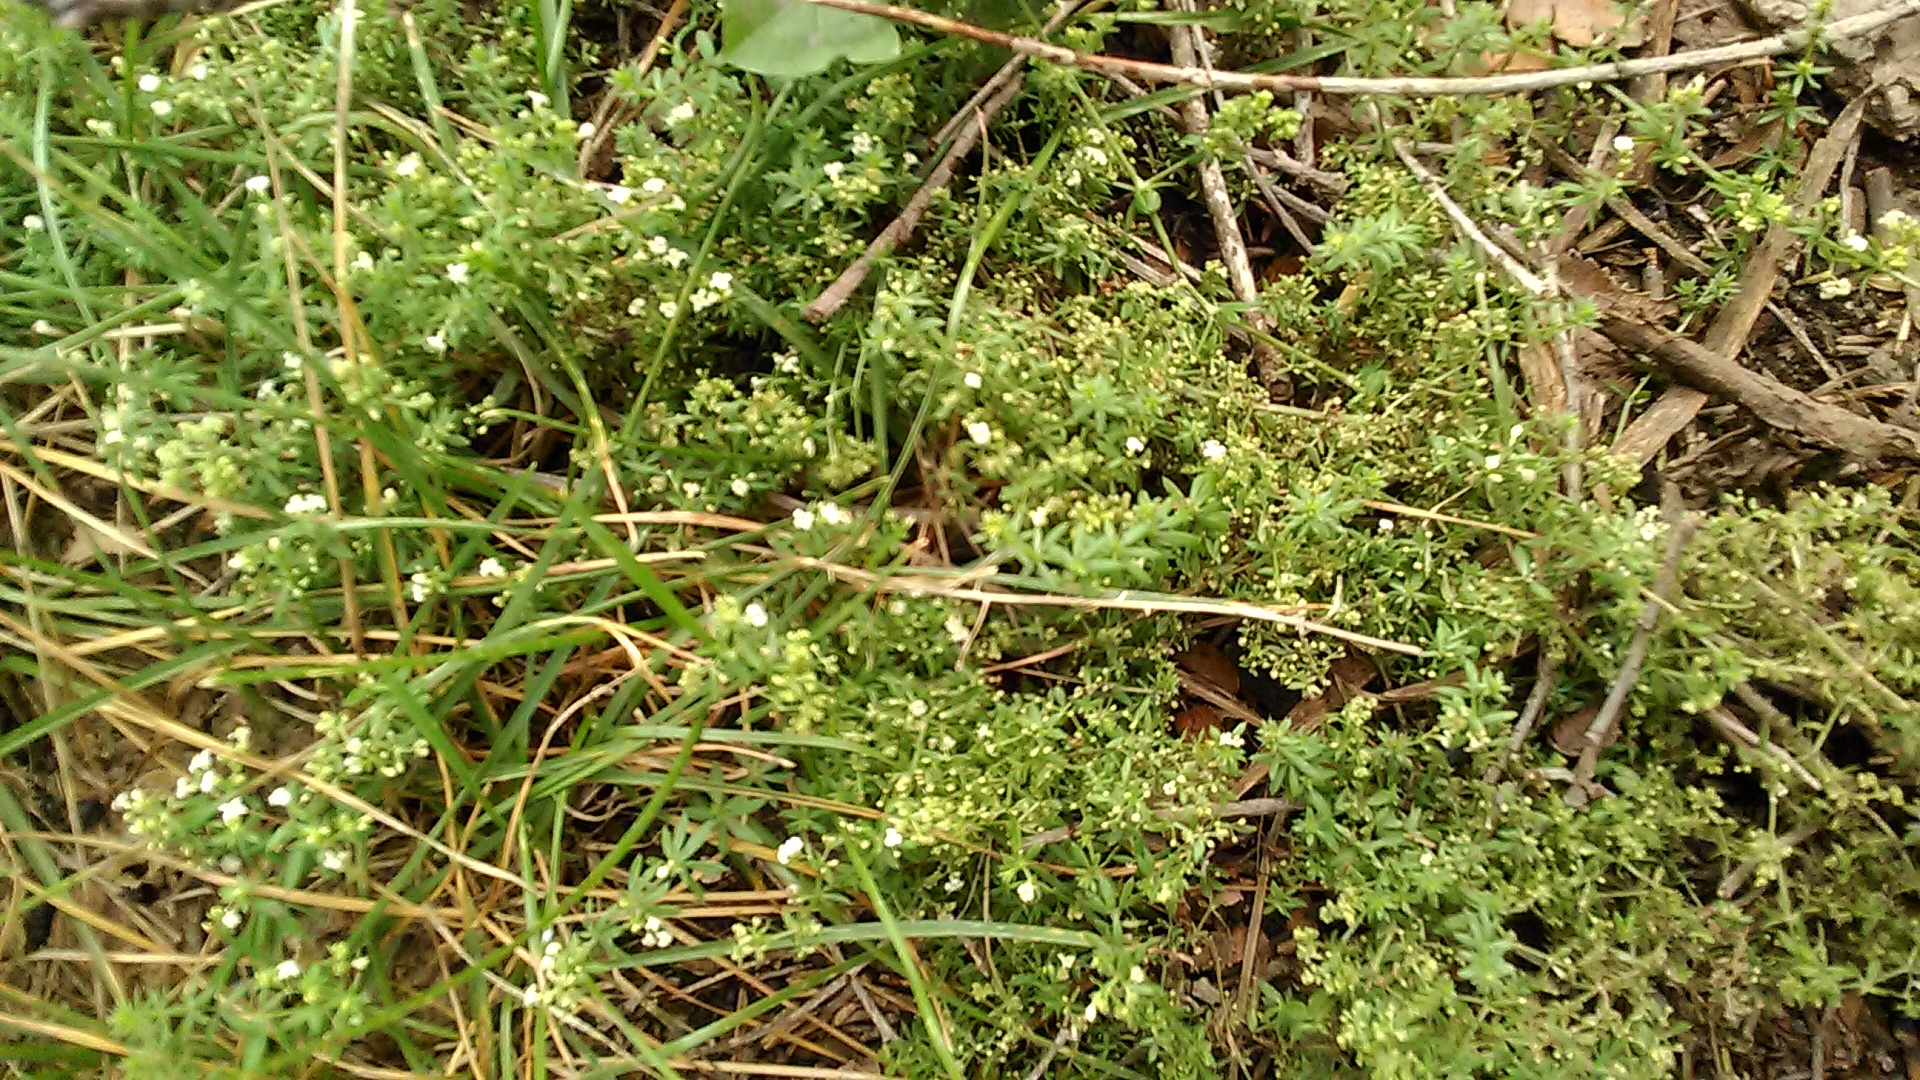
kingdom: Plantae
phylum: Tracheophyta
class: Magnoliopsida
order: Gentianales
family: Rubiaceae
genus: Galium
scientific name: Galium humifusum
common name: Spreading bedstraw
